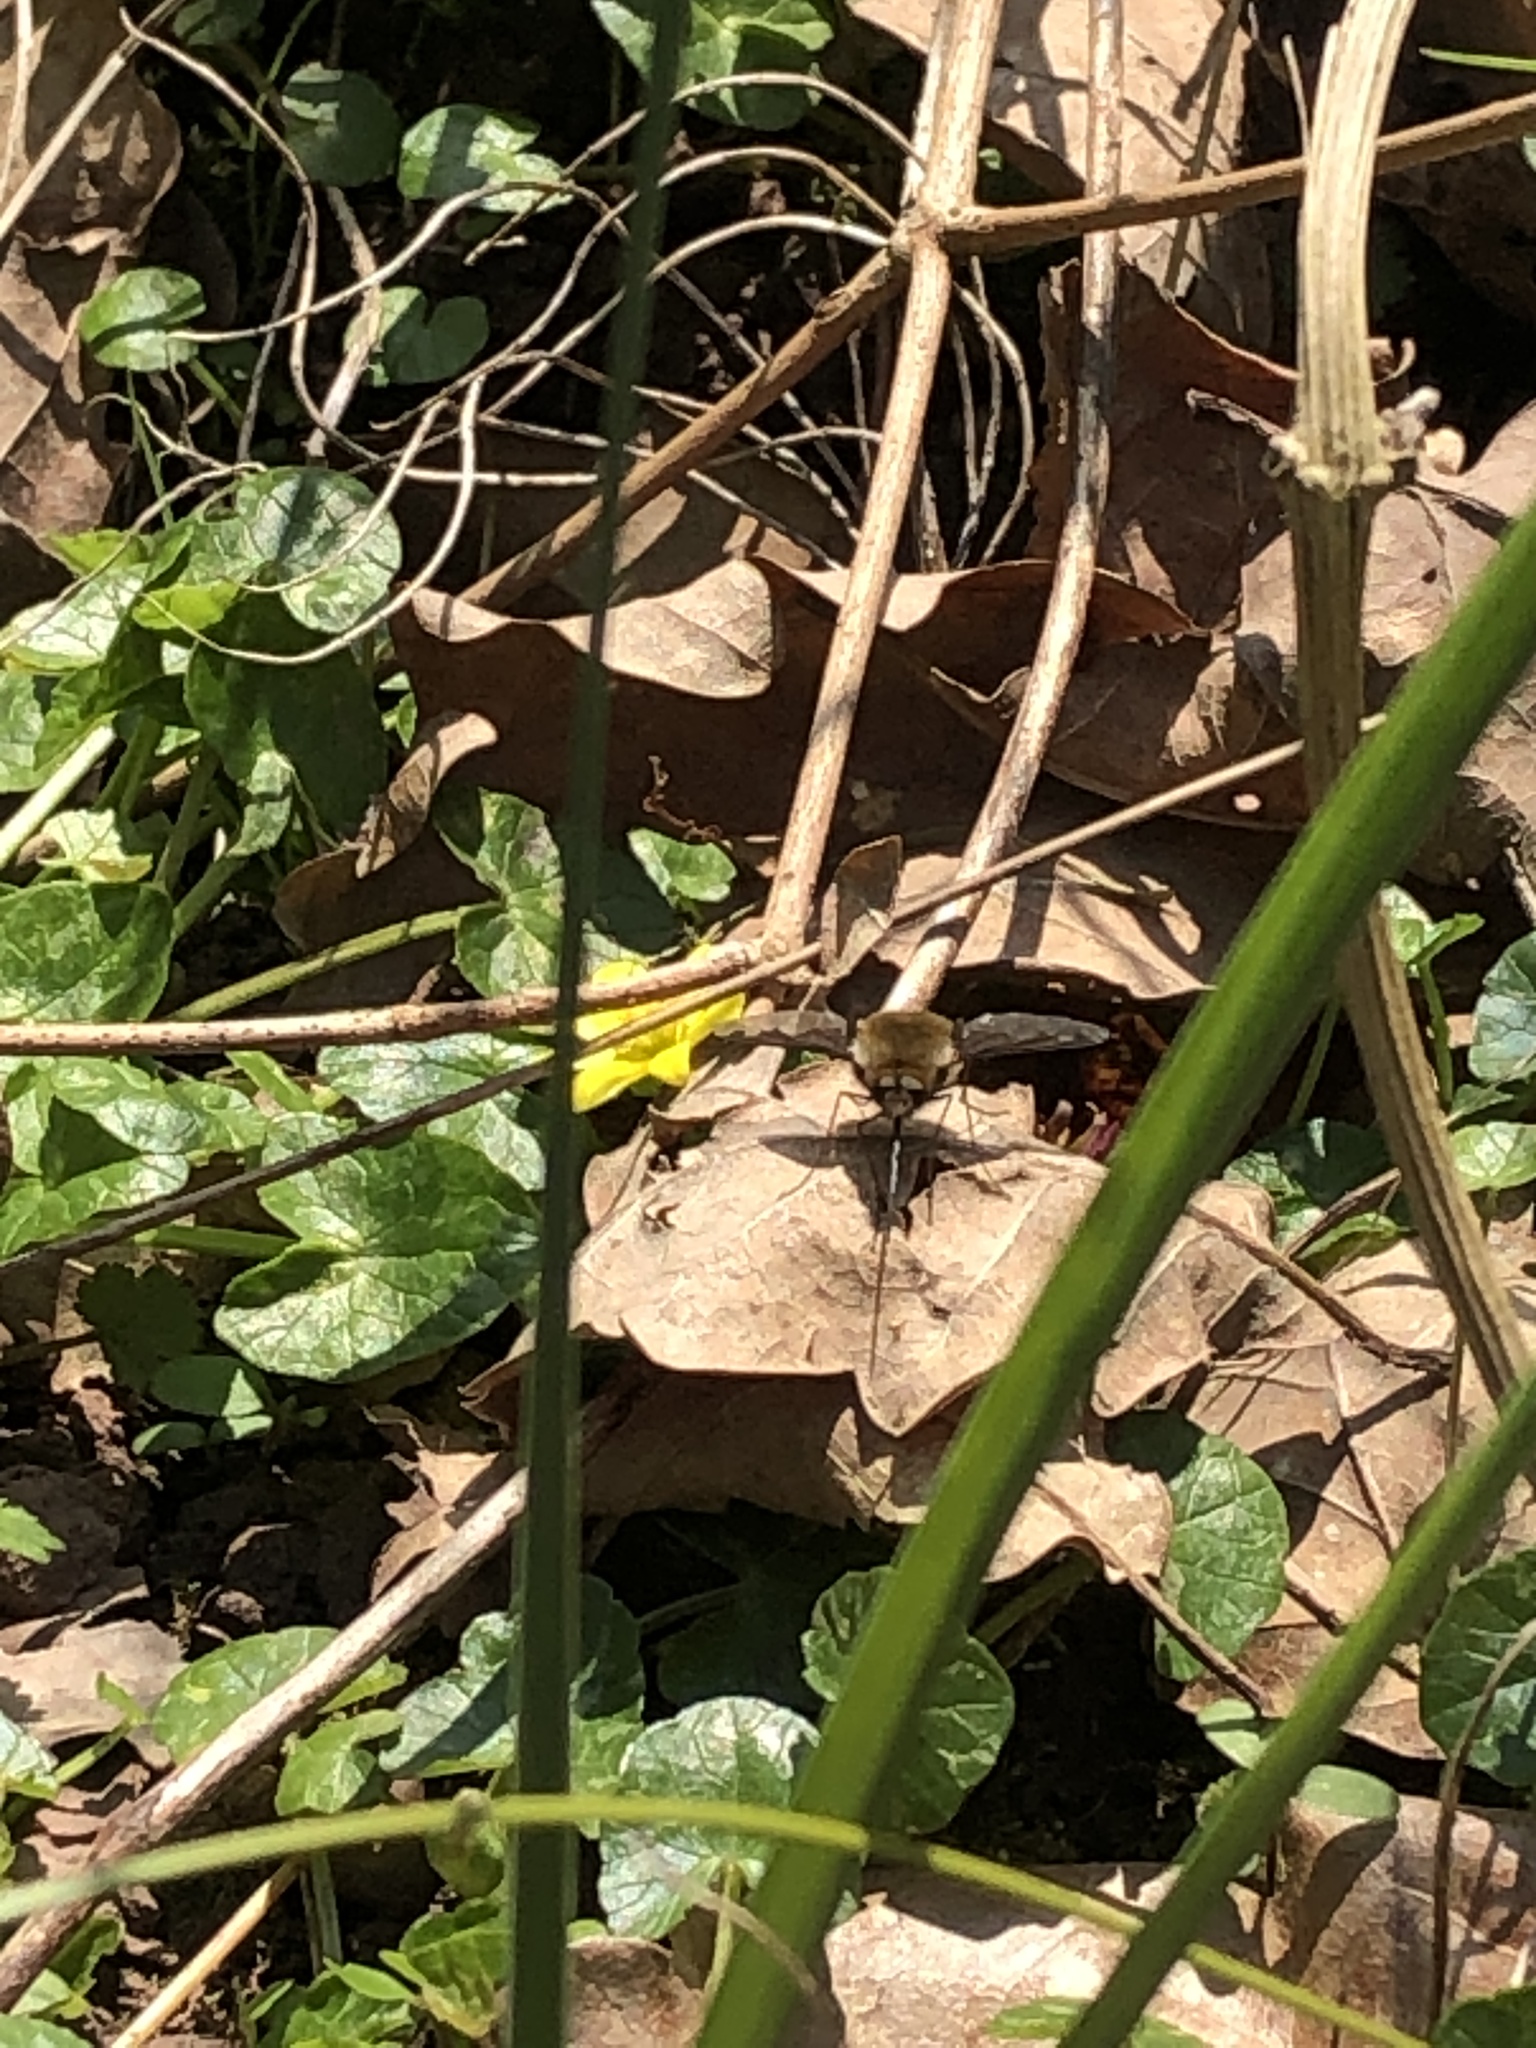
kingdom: Animalia
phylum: Arthropoda
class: Insecta
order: Diptera
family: Bombyliidae
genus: Bombylius
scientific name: Bombylius major
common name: Bee fly
